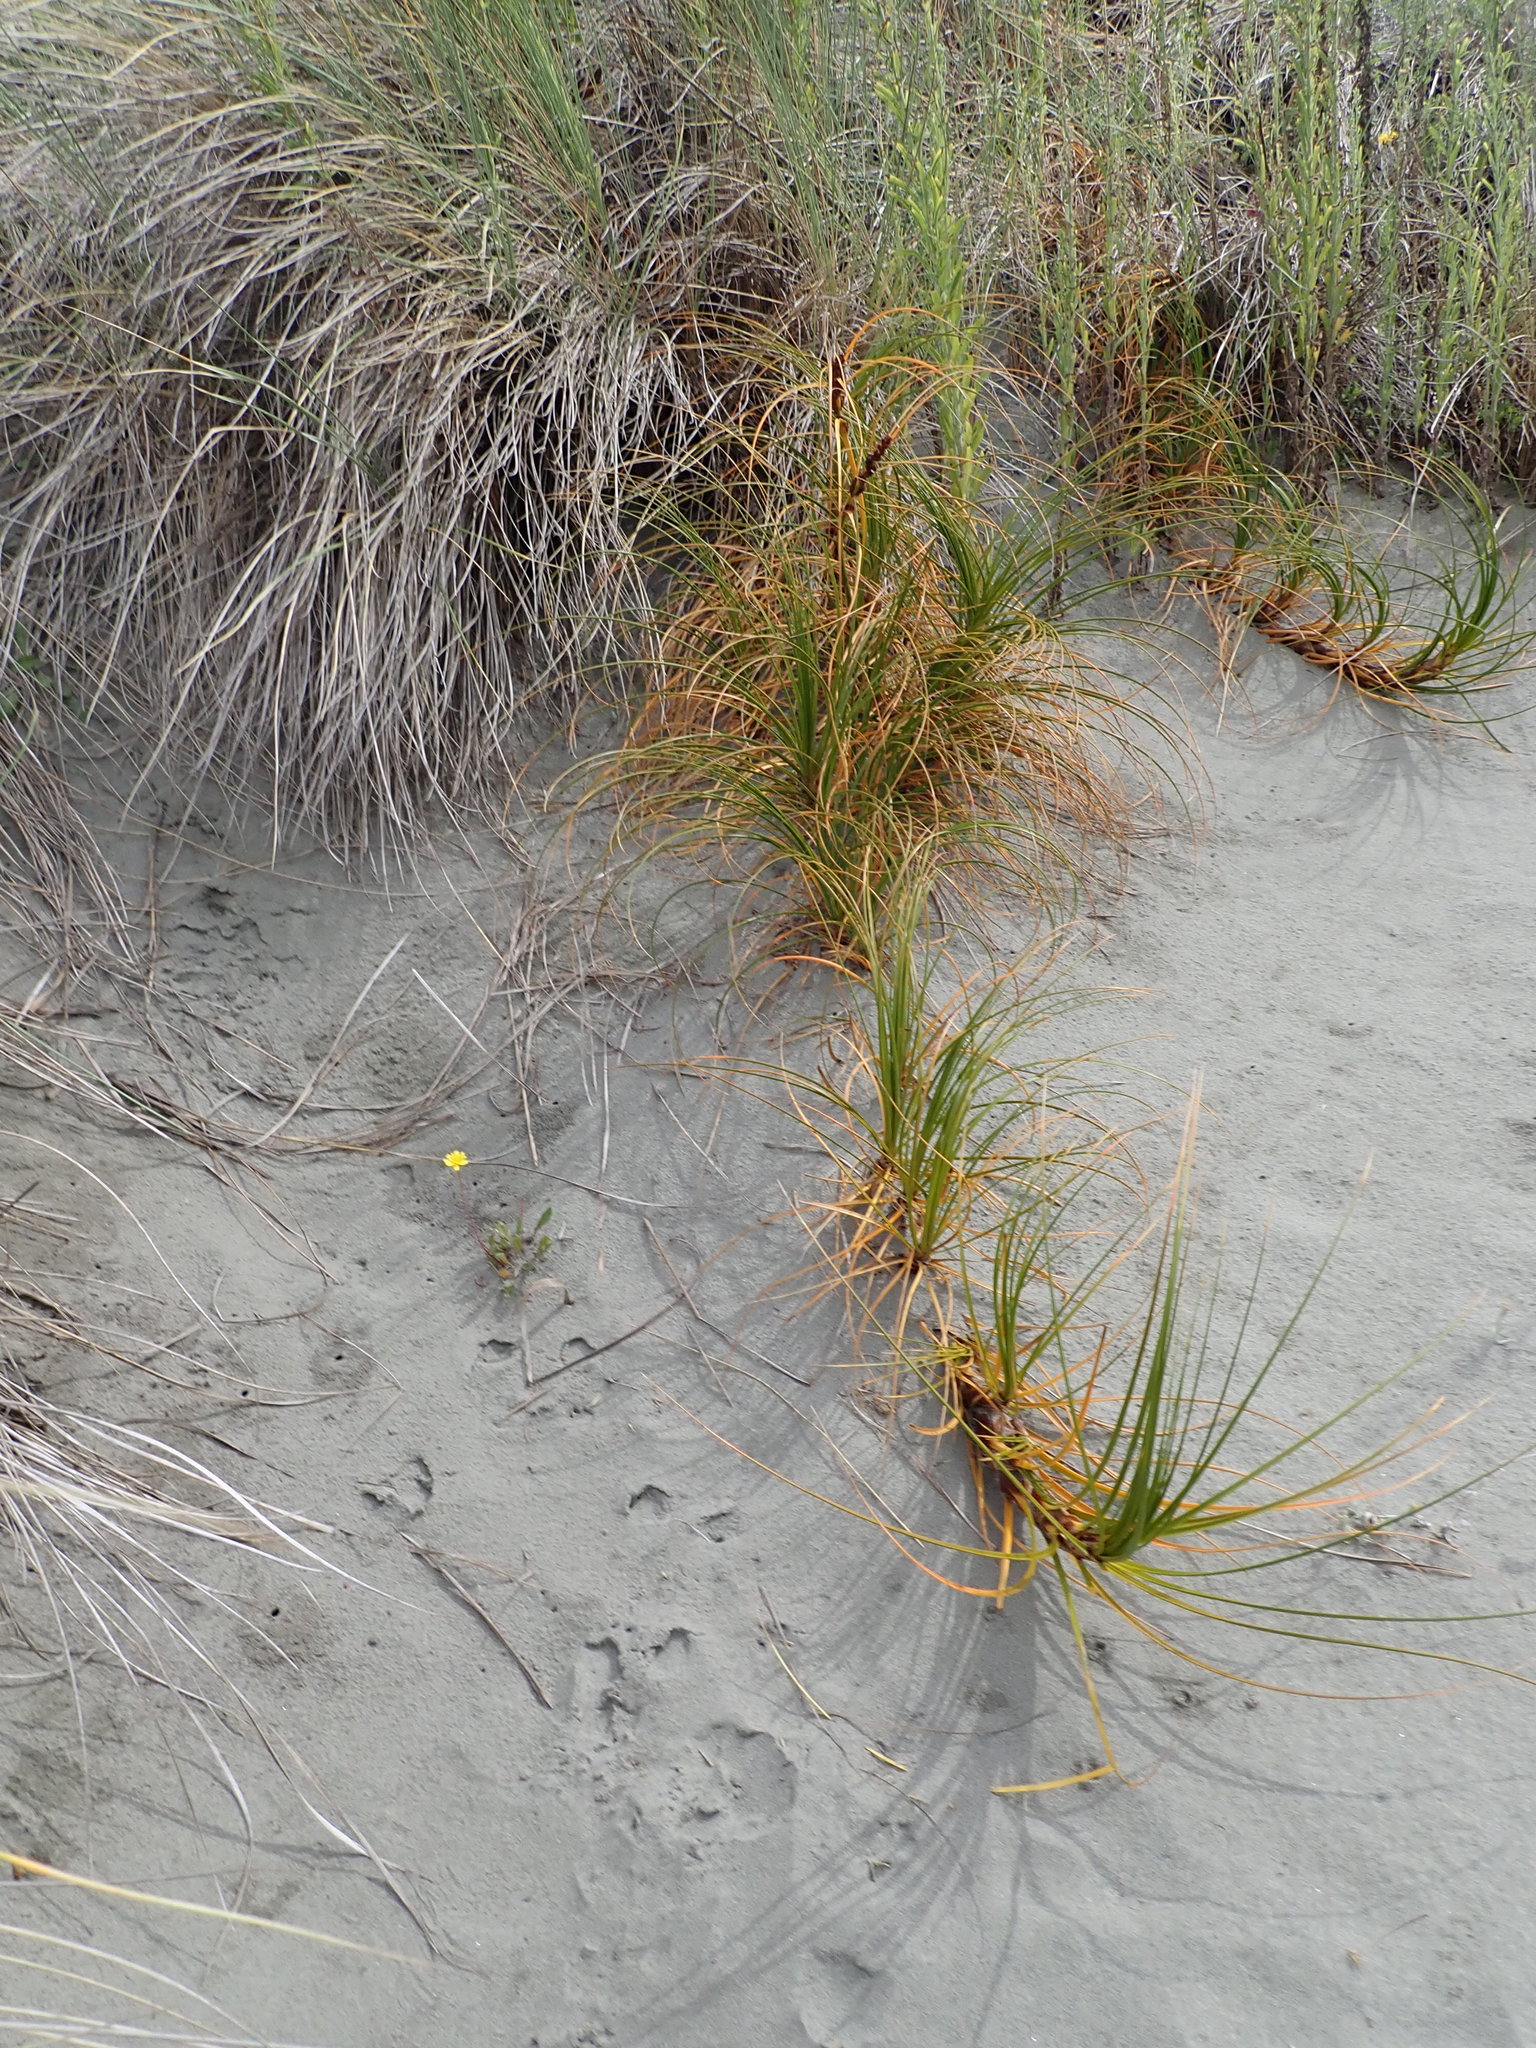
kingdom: Plantae
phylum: Tracheophyta
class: Liliopsida
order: Poales
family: Cyperaceae
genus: Ficinia
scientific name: Ficinia spiralis
